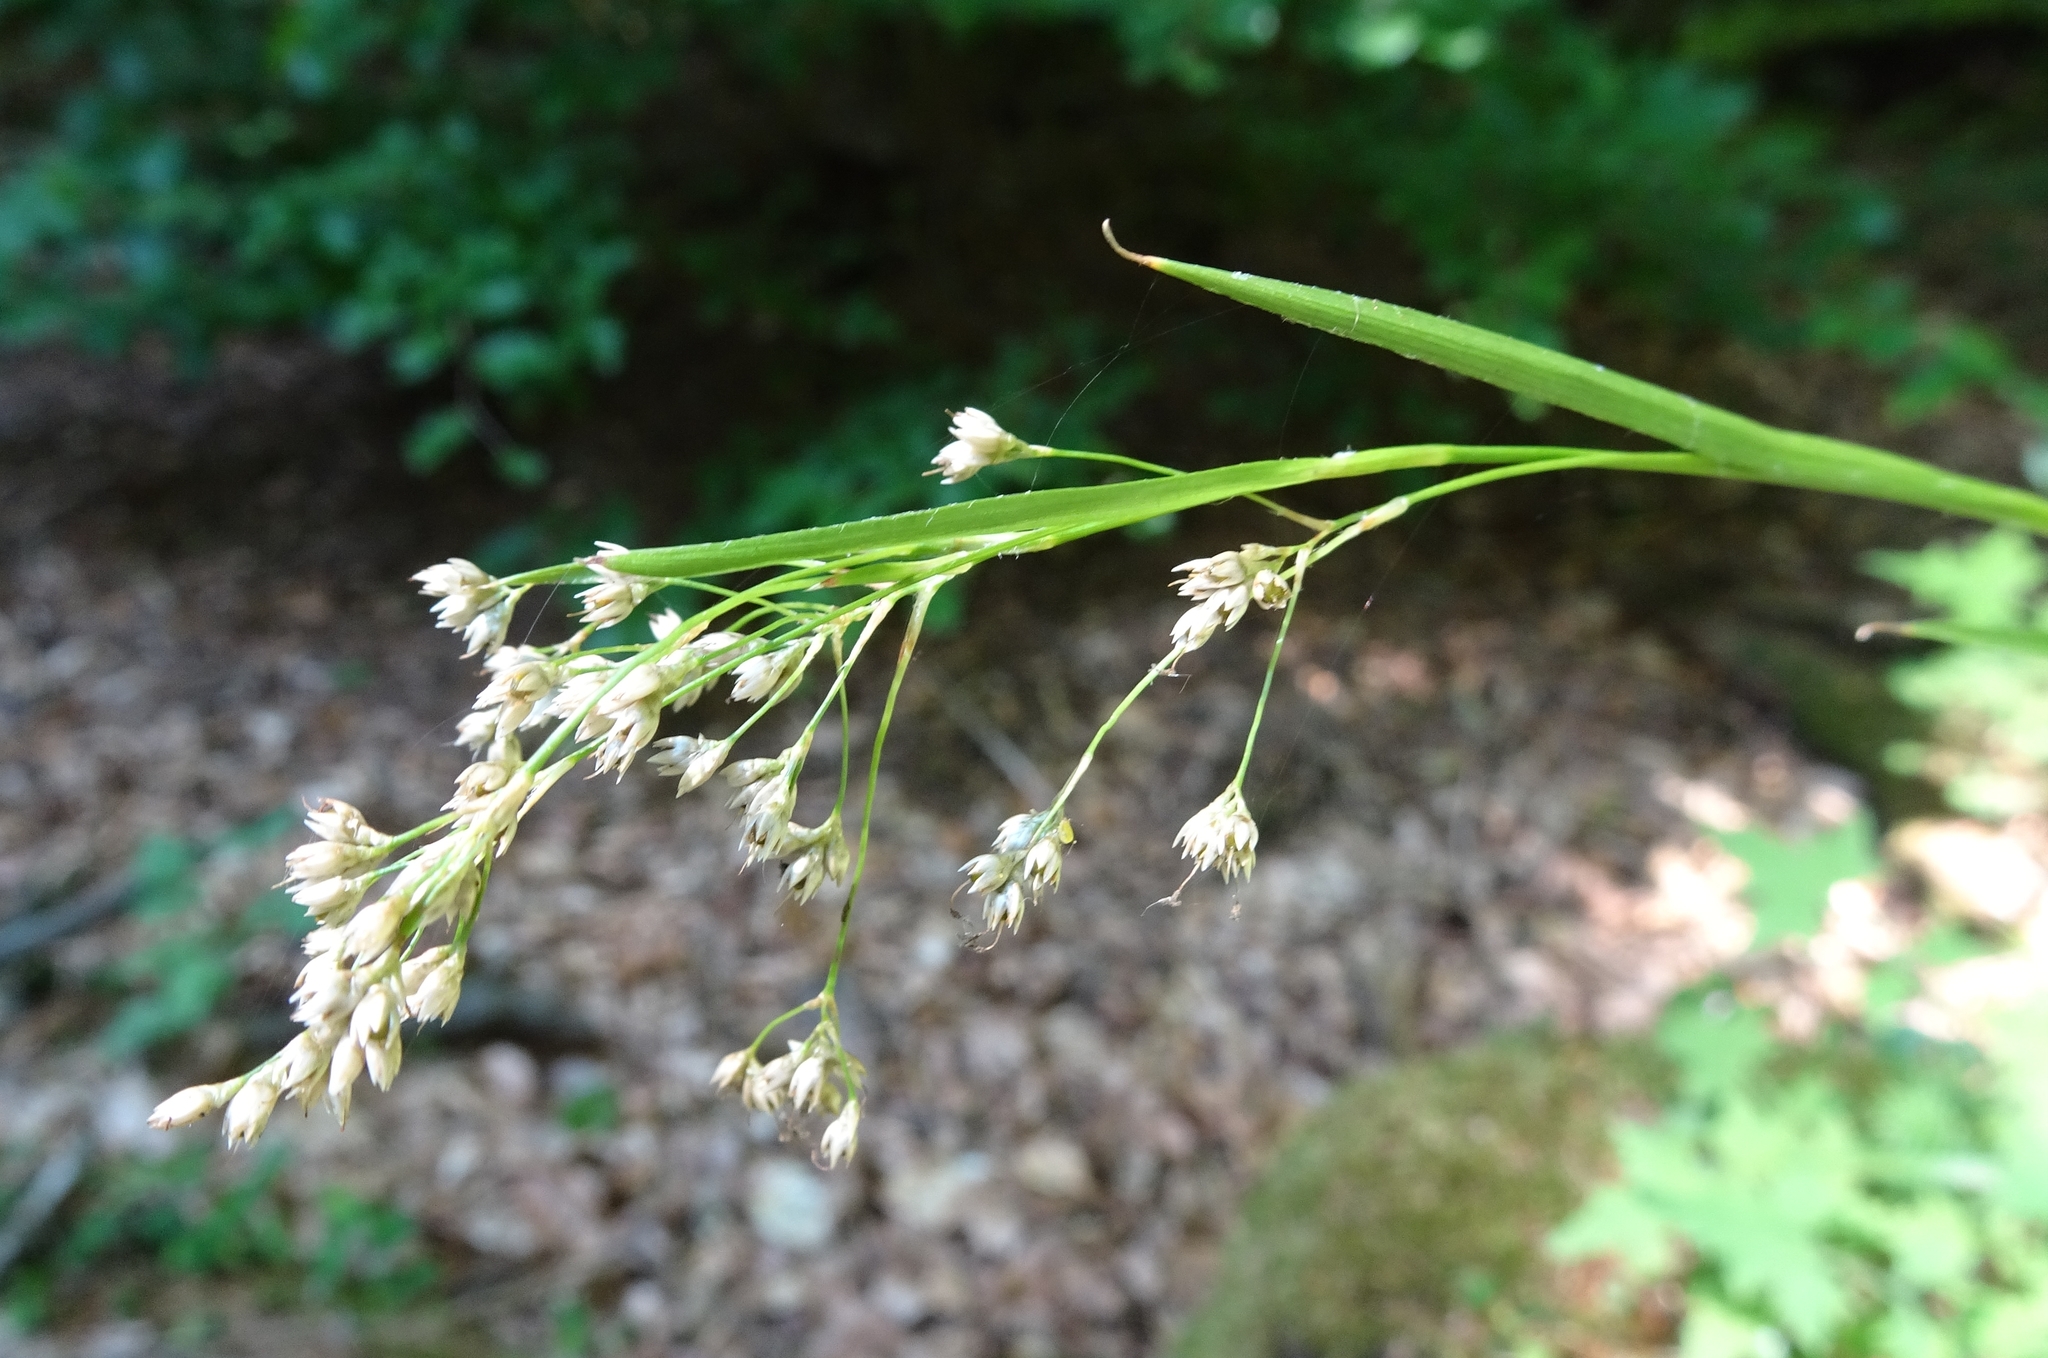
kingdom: Plantae
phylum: Tracheophyta
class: Liliopsida
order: Poales
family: Juncaceae
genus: Luzula
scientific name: Luzula luzuloides
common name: White wood-rush
